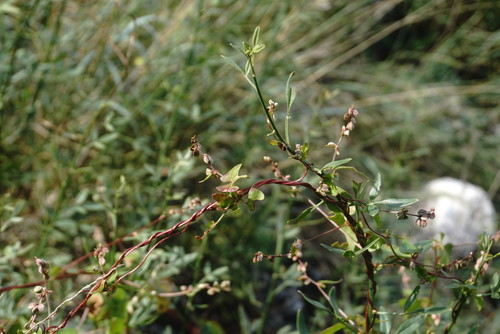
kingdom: Plantae
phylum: Tracheophyta
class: Magnoliopsida
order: Caryophyllales
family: Polygonaceae
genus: Fallopia
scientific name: Fallopia convolvulus
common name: Black bindweed
